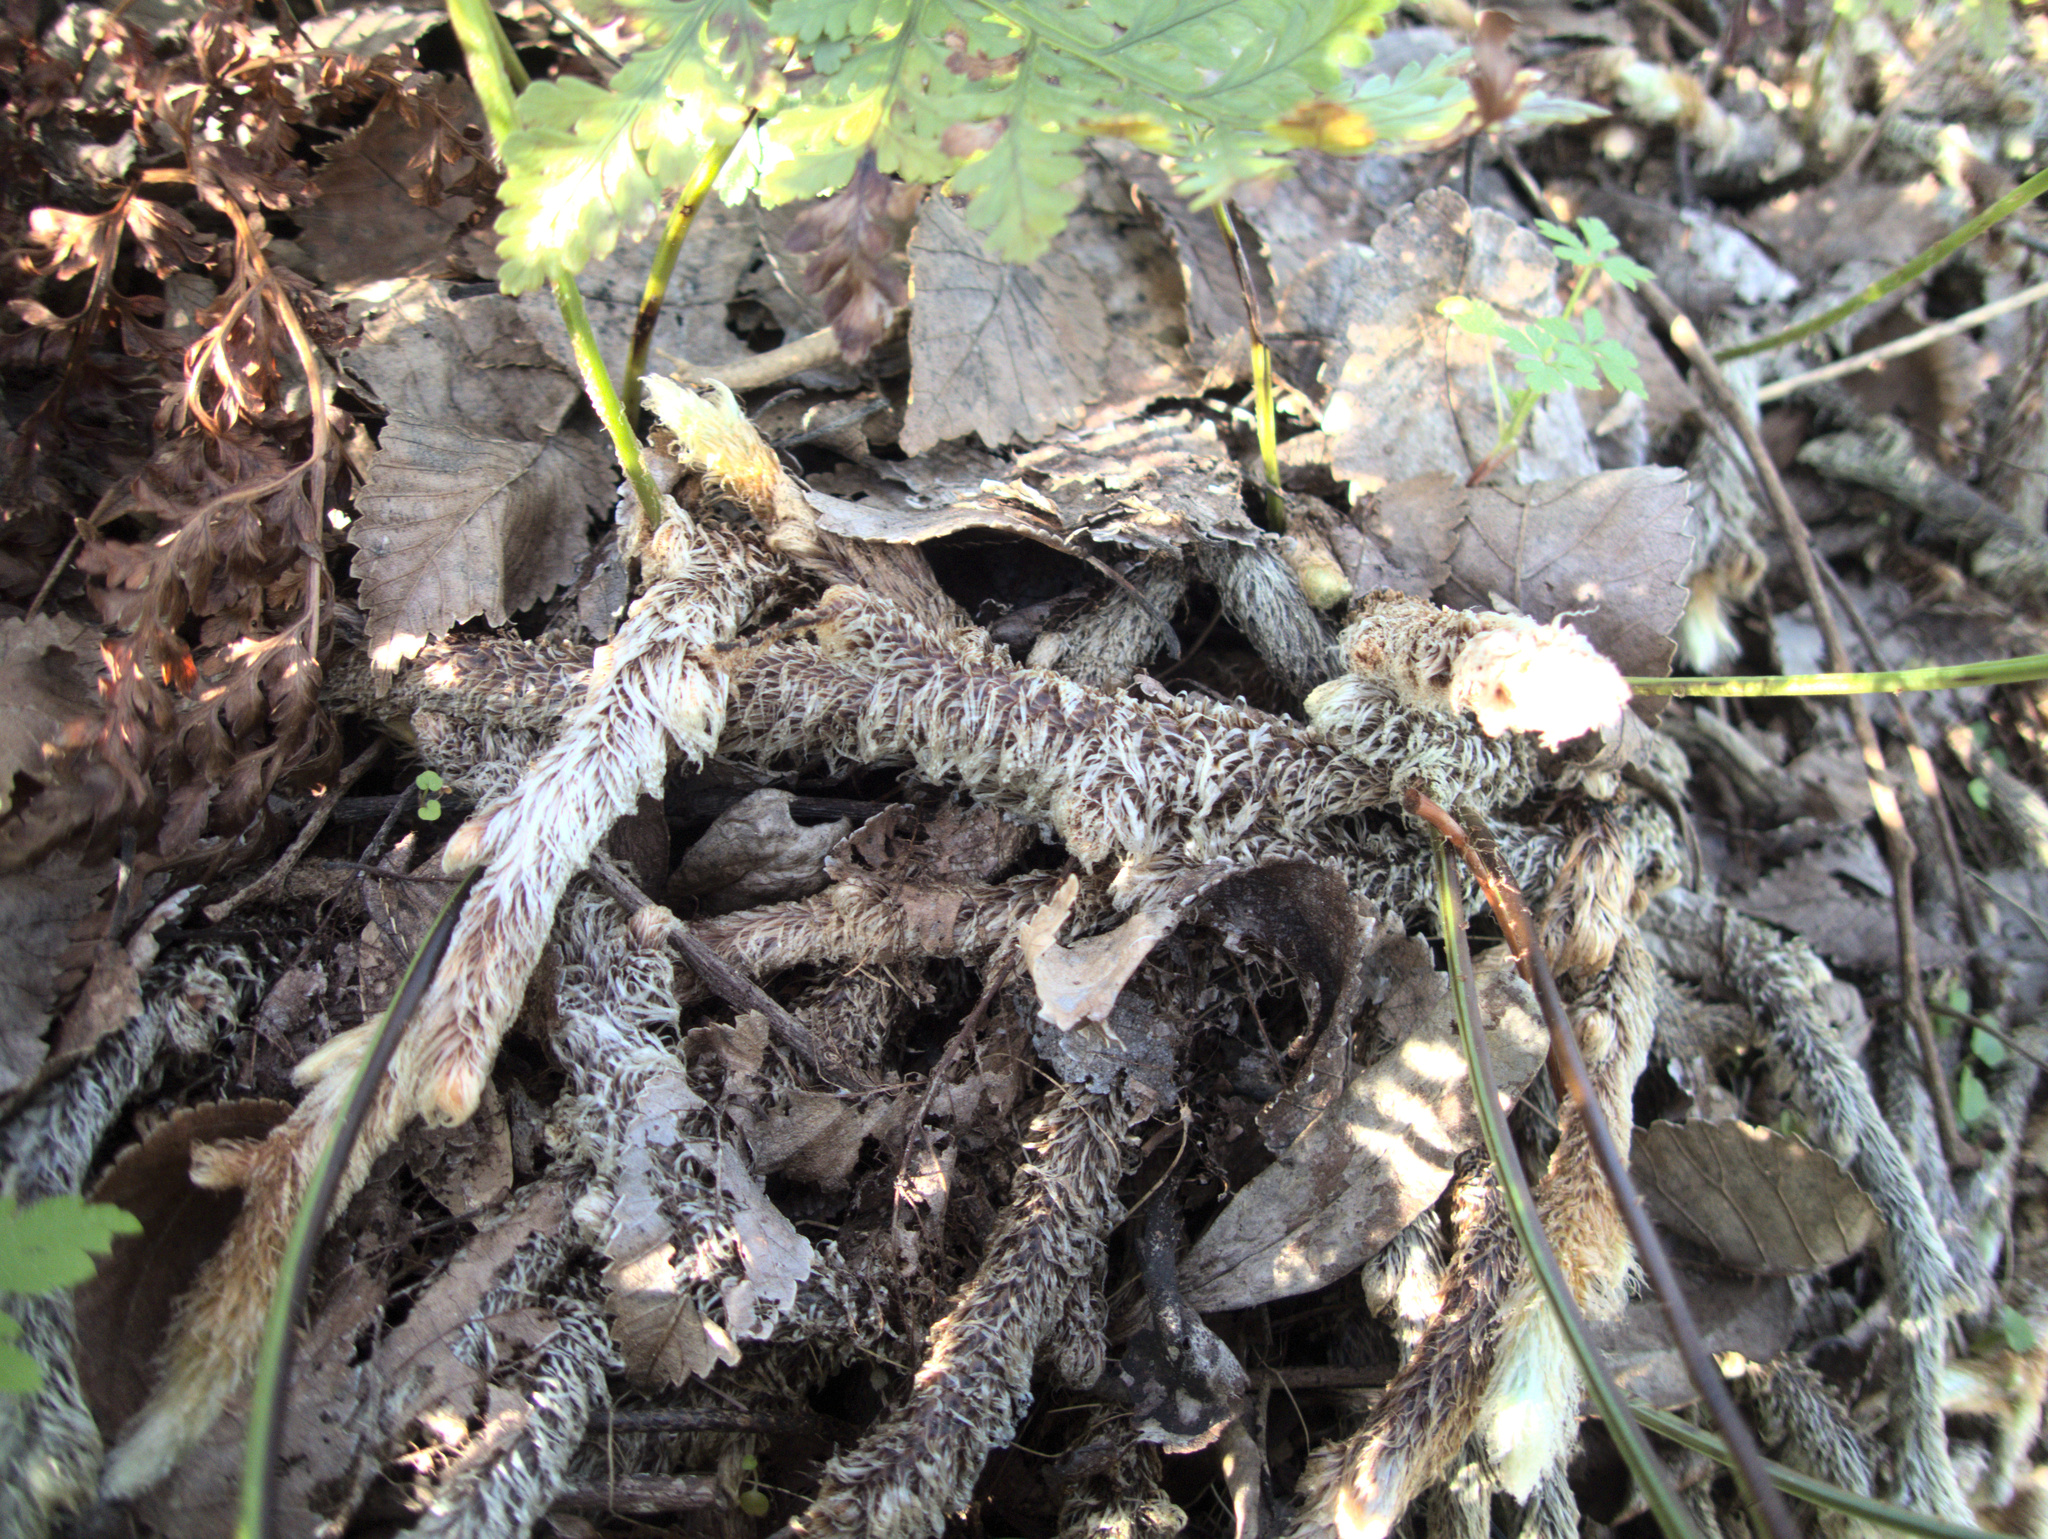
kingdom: Plantae
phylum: Tracheophyta
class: Polypodiopsida
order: Polypodiales
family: Davalliaceae
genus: Davallia
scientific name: Davallia griffithiana
